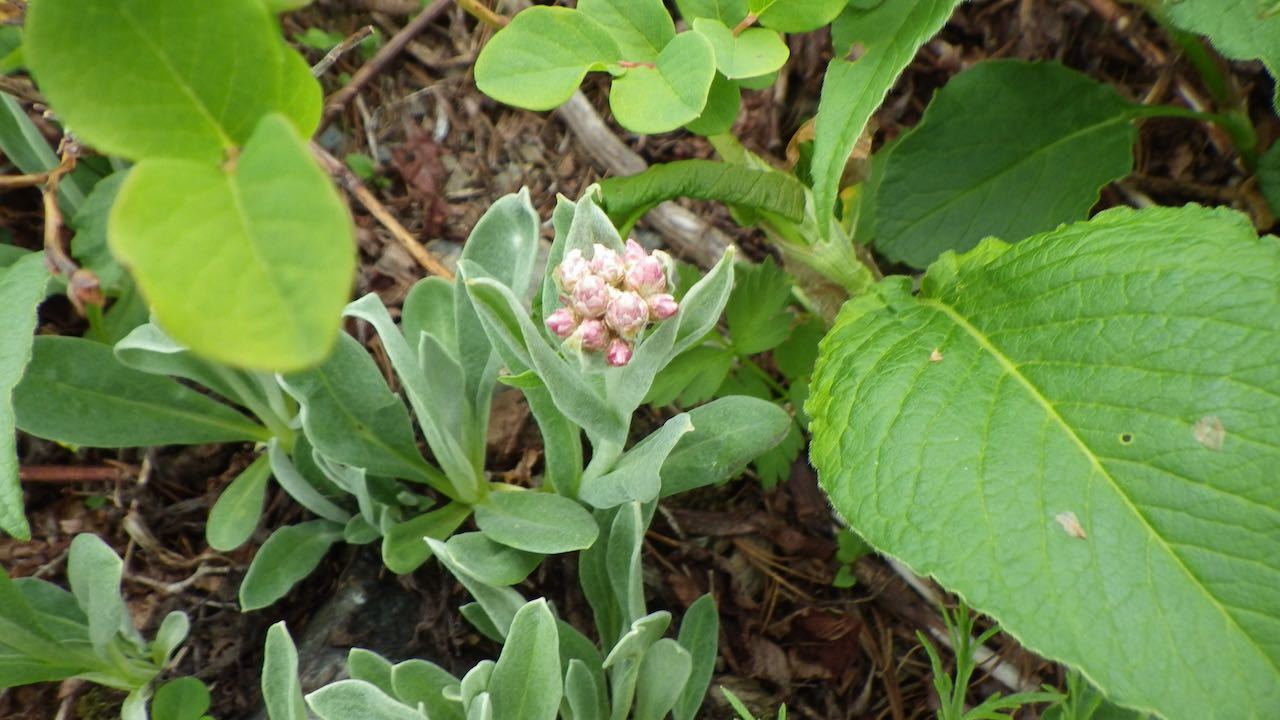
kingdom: Plantae
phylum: Tracheophyta
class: Magnoliopsida
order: Asterales
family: Asteraceae
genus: Anaphalis
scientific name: Anaphalis alpicola
